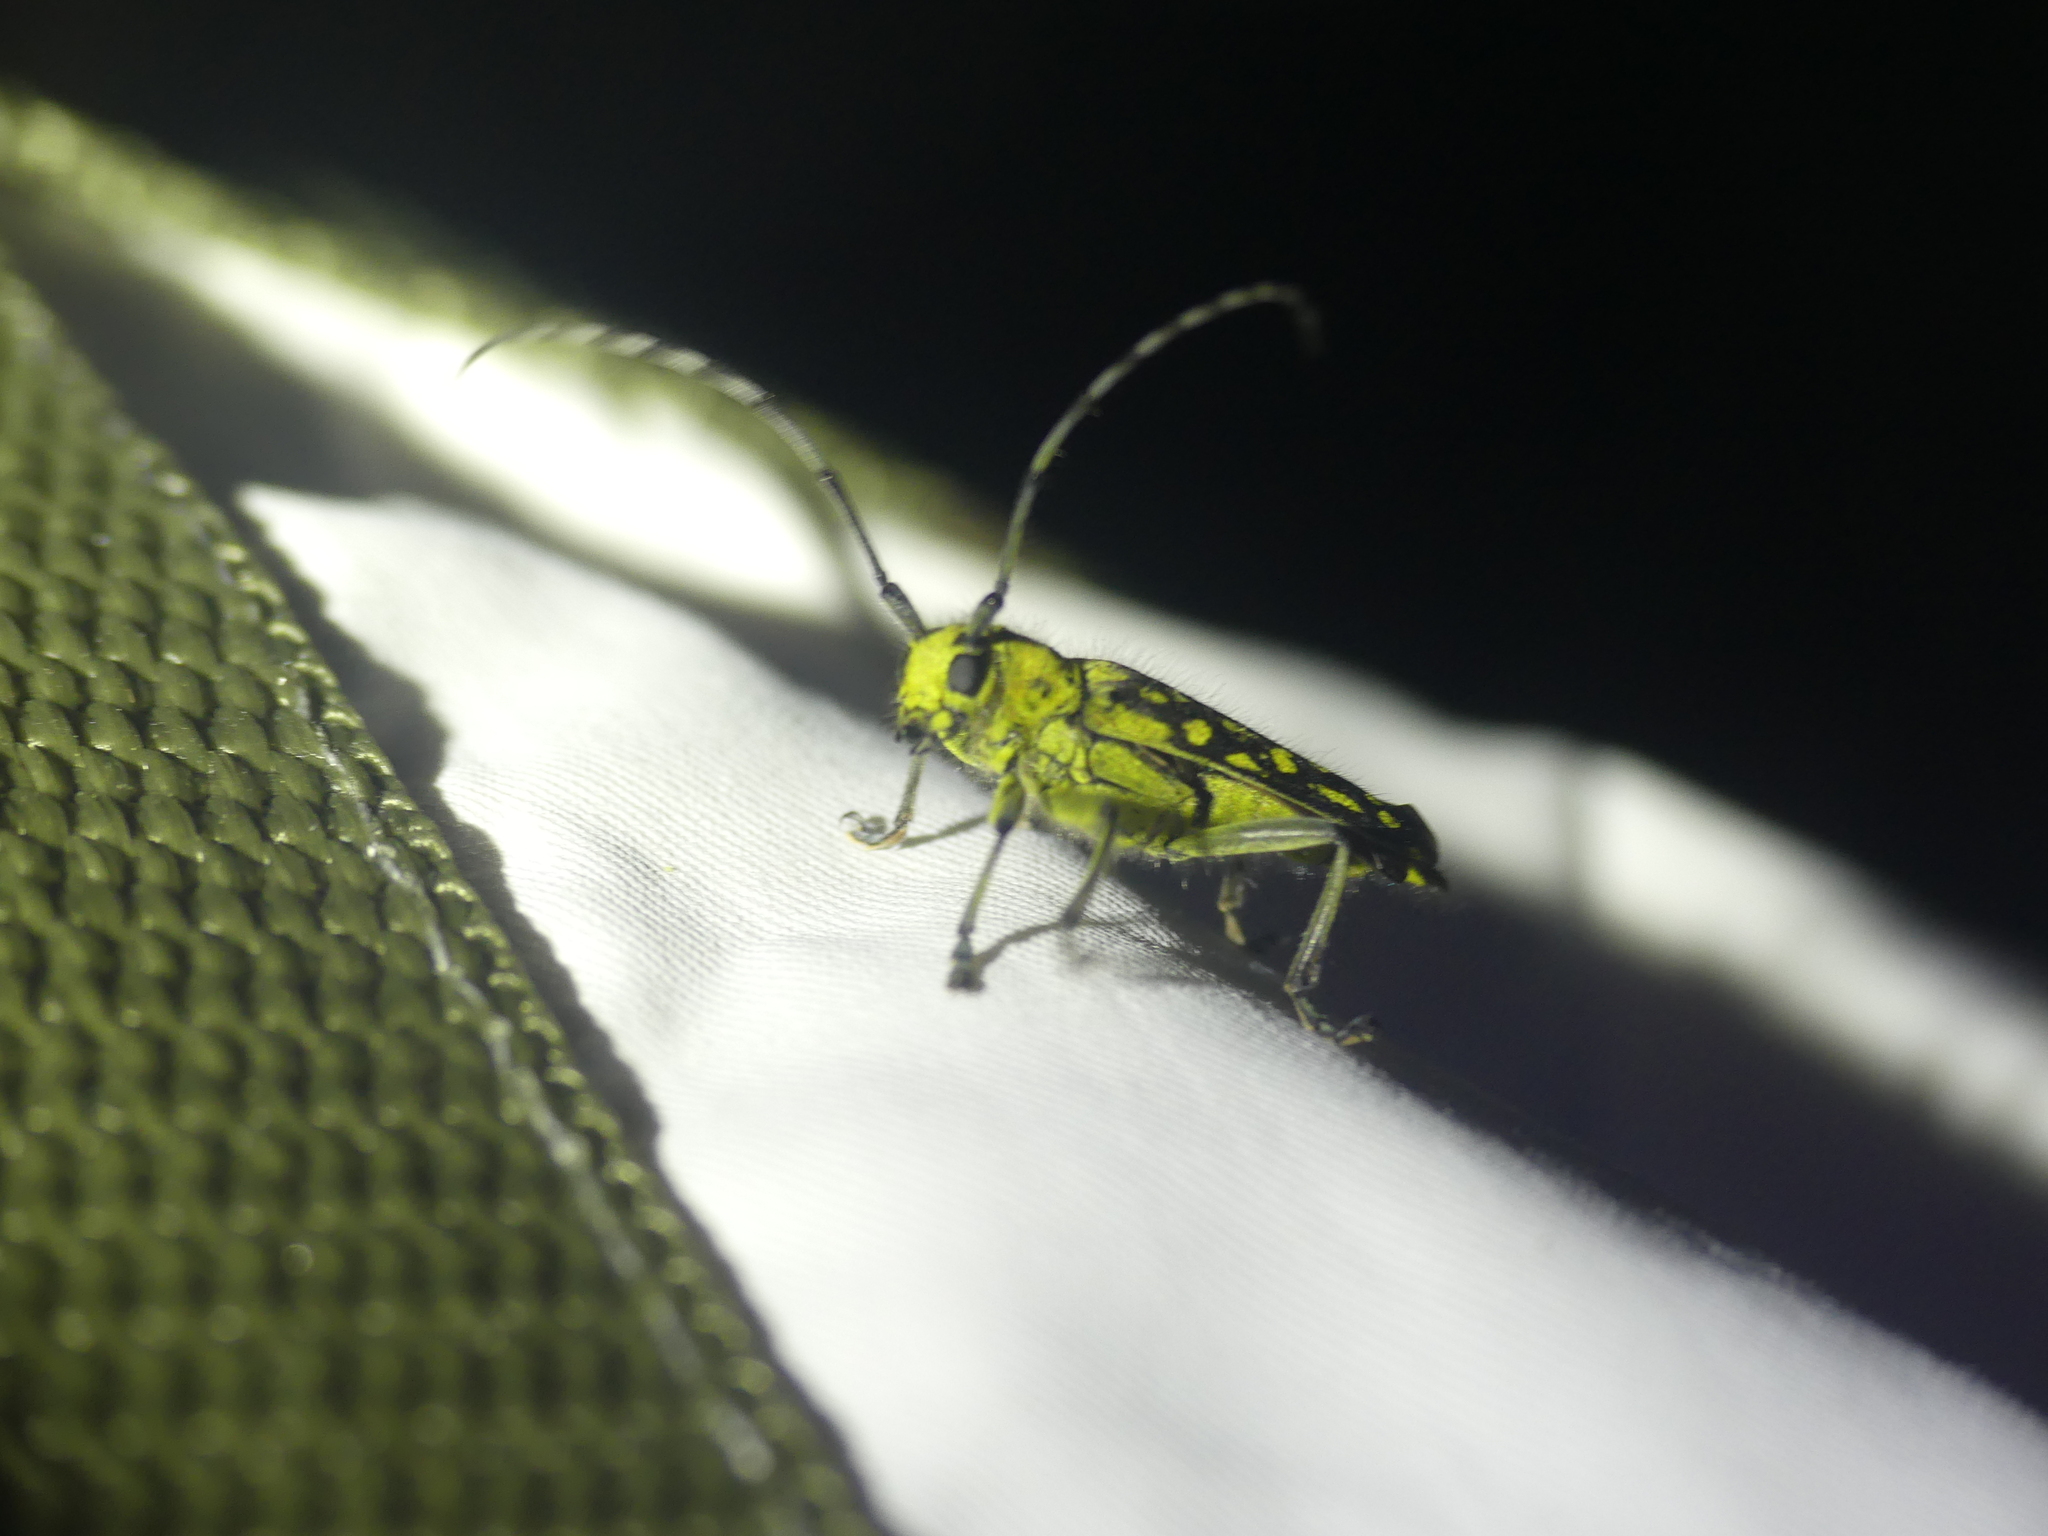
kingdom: Animalia
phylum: Arthropoda
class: Insecta
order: Coleoptera
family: Cerambycidae
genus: Saperda
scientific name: Saperda scalaris
